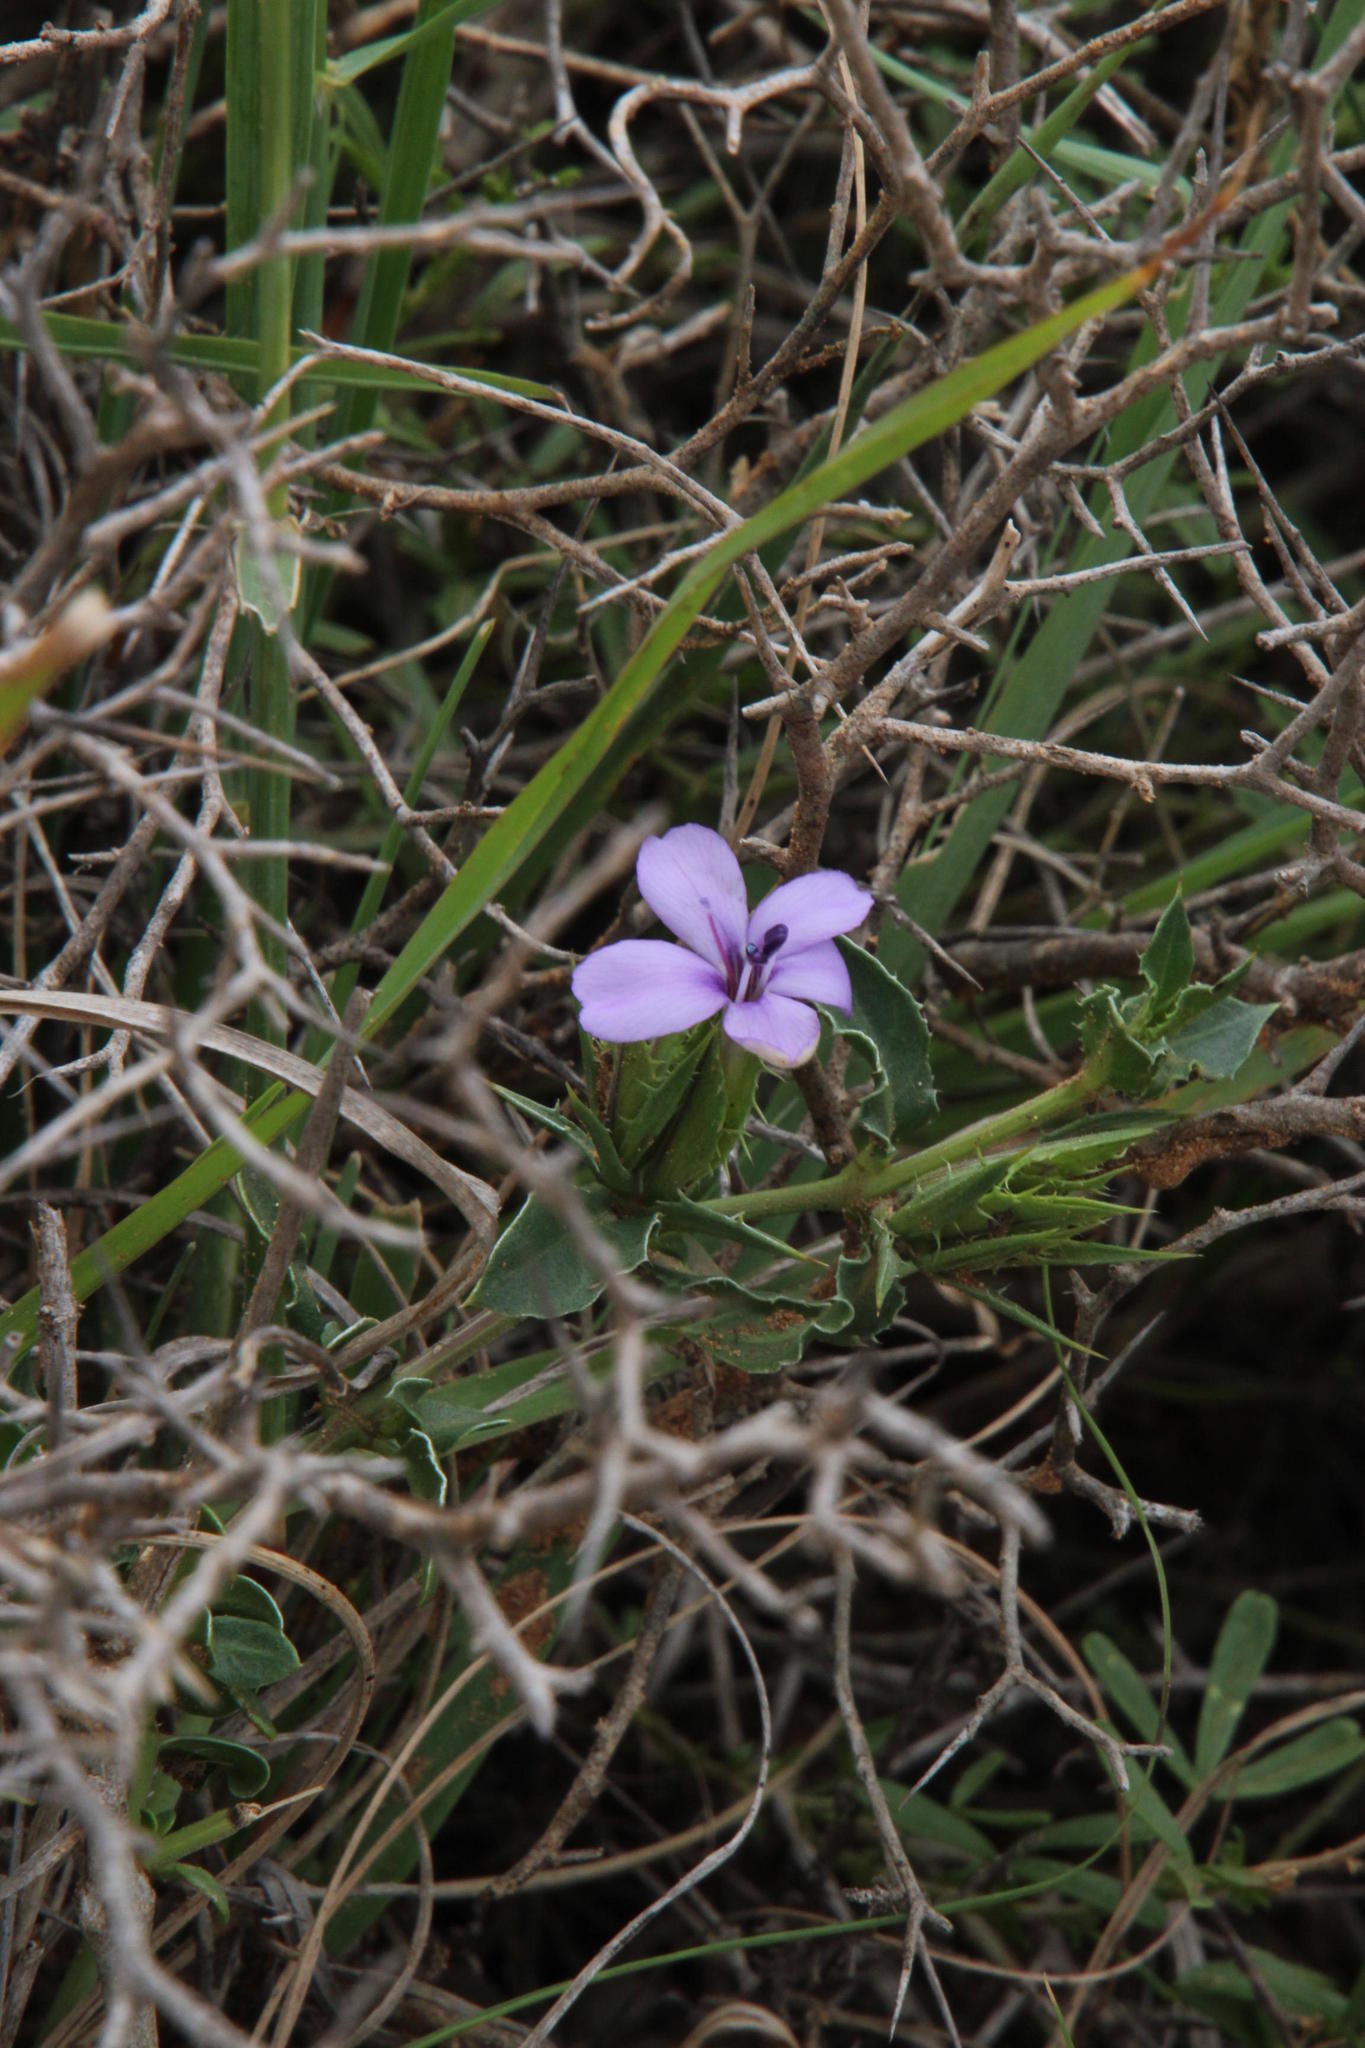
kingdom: Plantae
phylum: Tracheophyta
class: Magnoliopsida
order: Lamiales
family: Acanthaceae
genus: Barleria
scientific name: Barleria irritans
